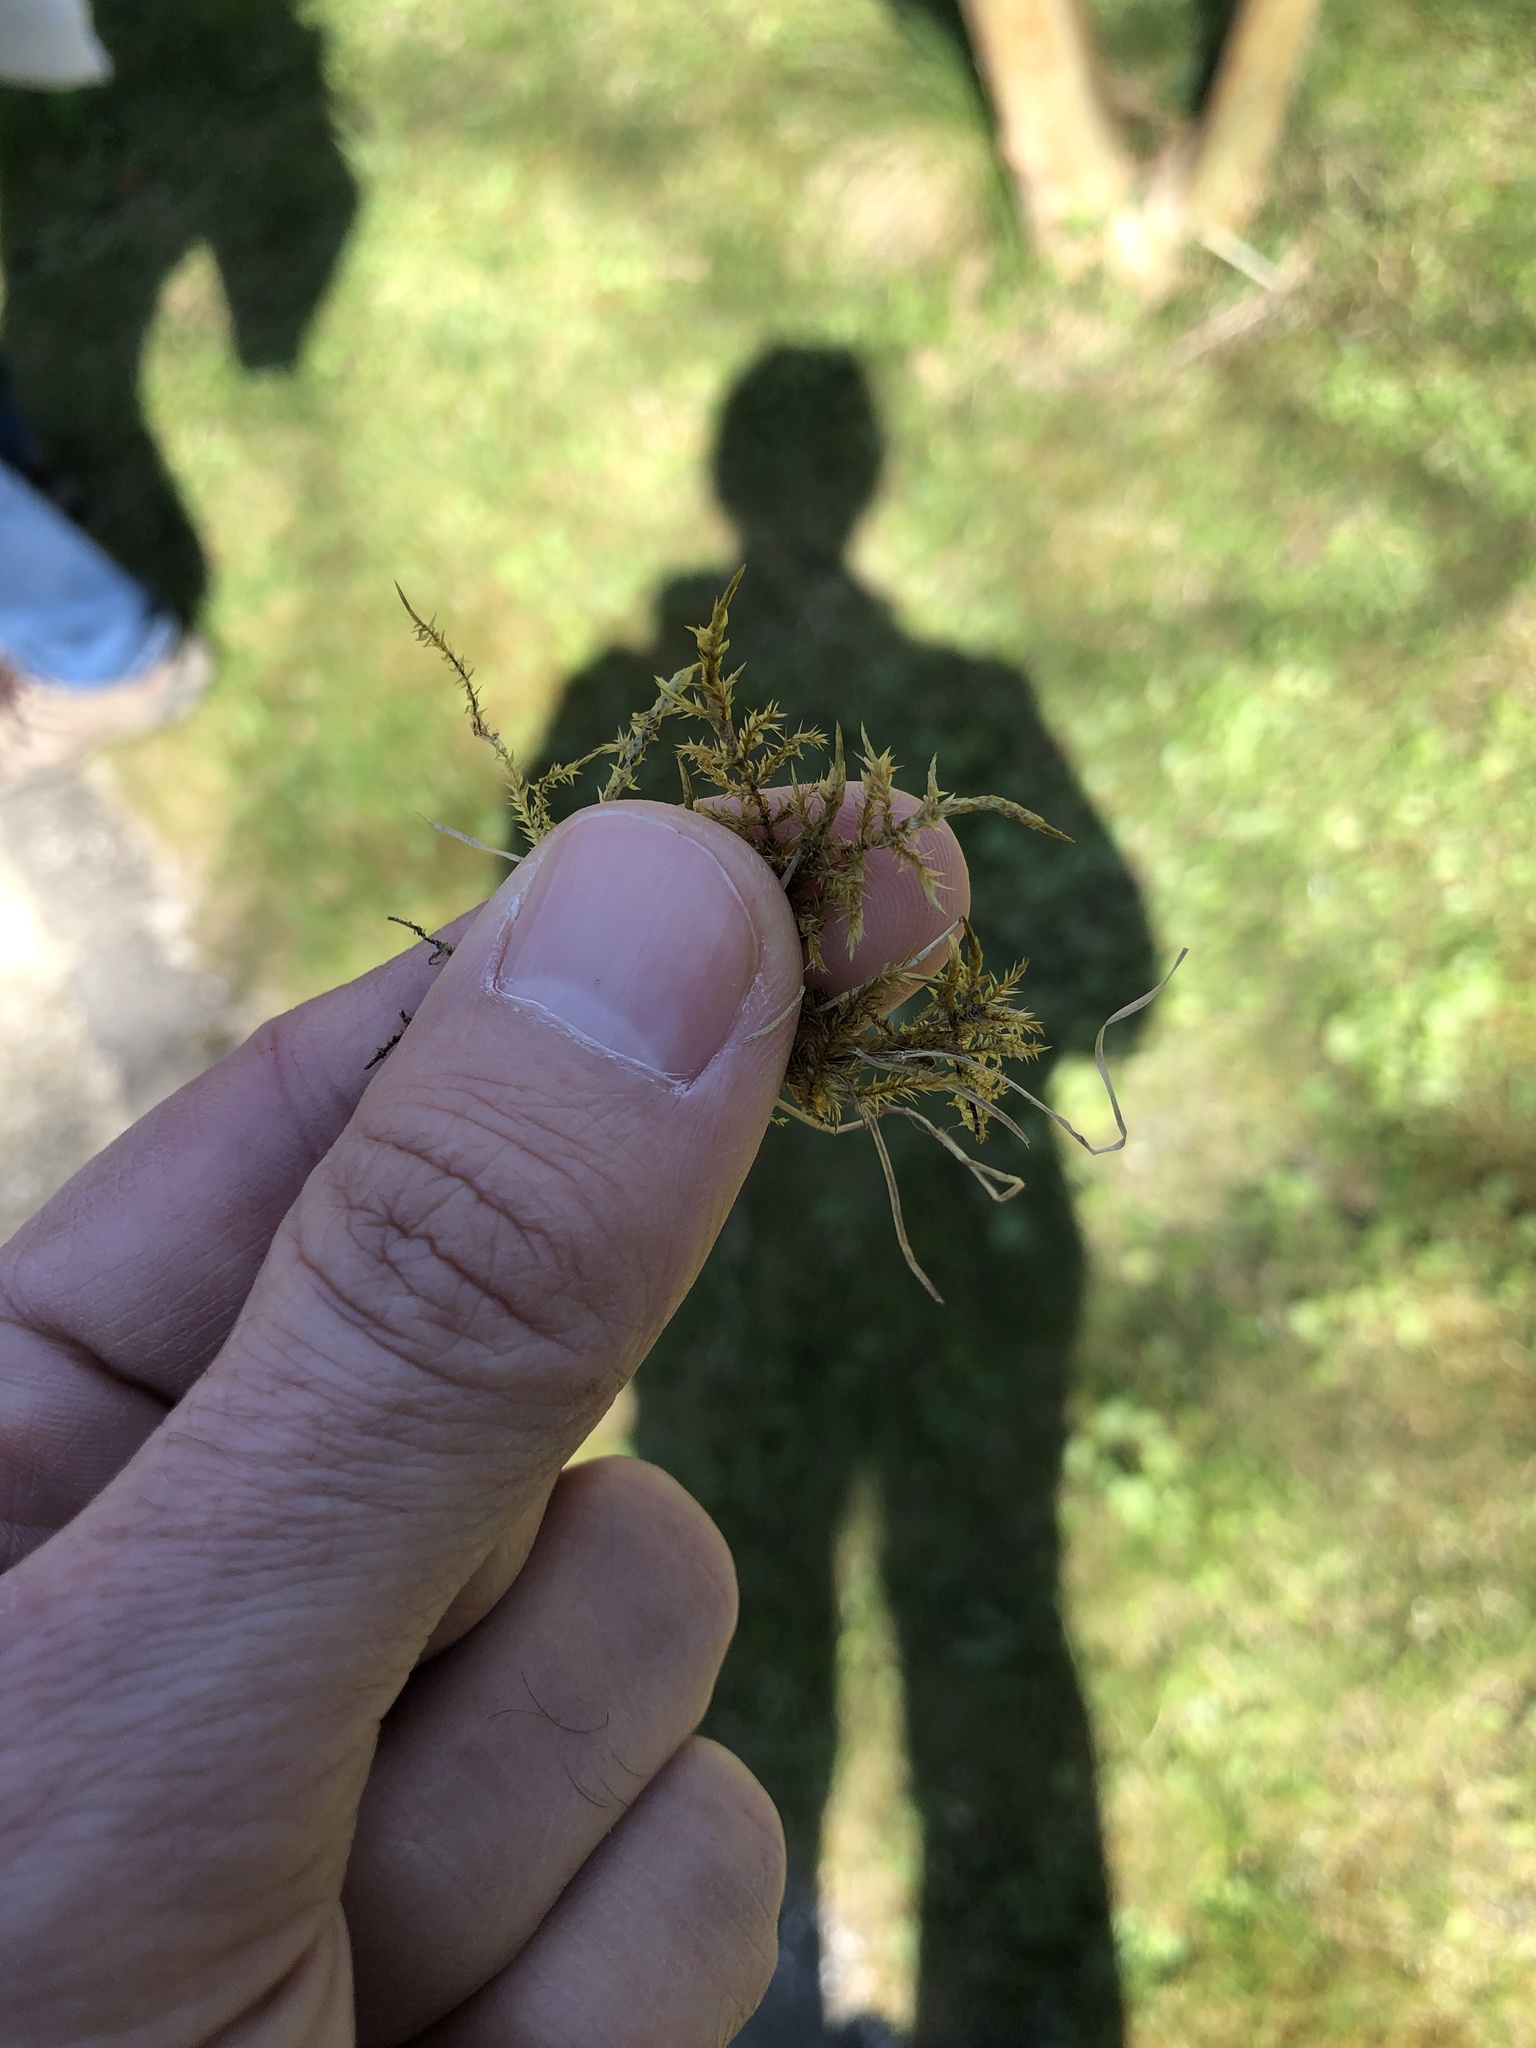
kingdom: Plantae
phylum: Bryophyta
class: Bryopsida
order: Hypnales
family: Pylaisiaceae
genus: Calliergonella
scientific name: Calliergonella cuspidata
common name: Common large wetland moss
